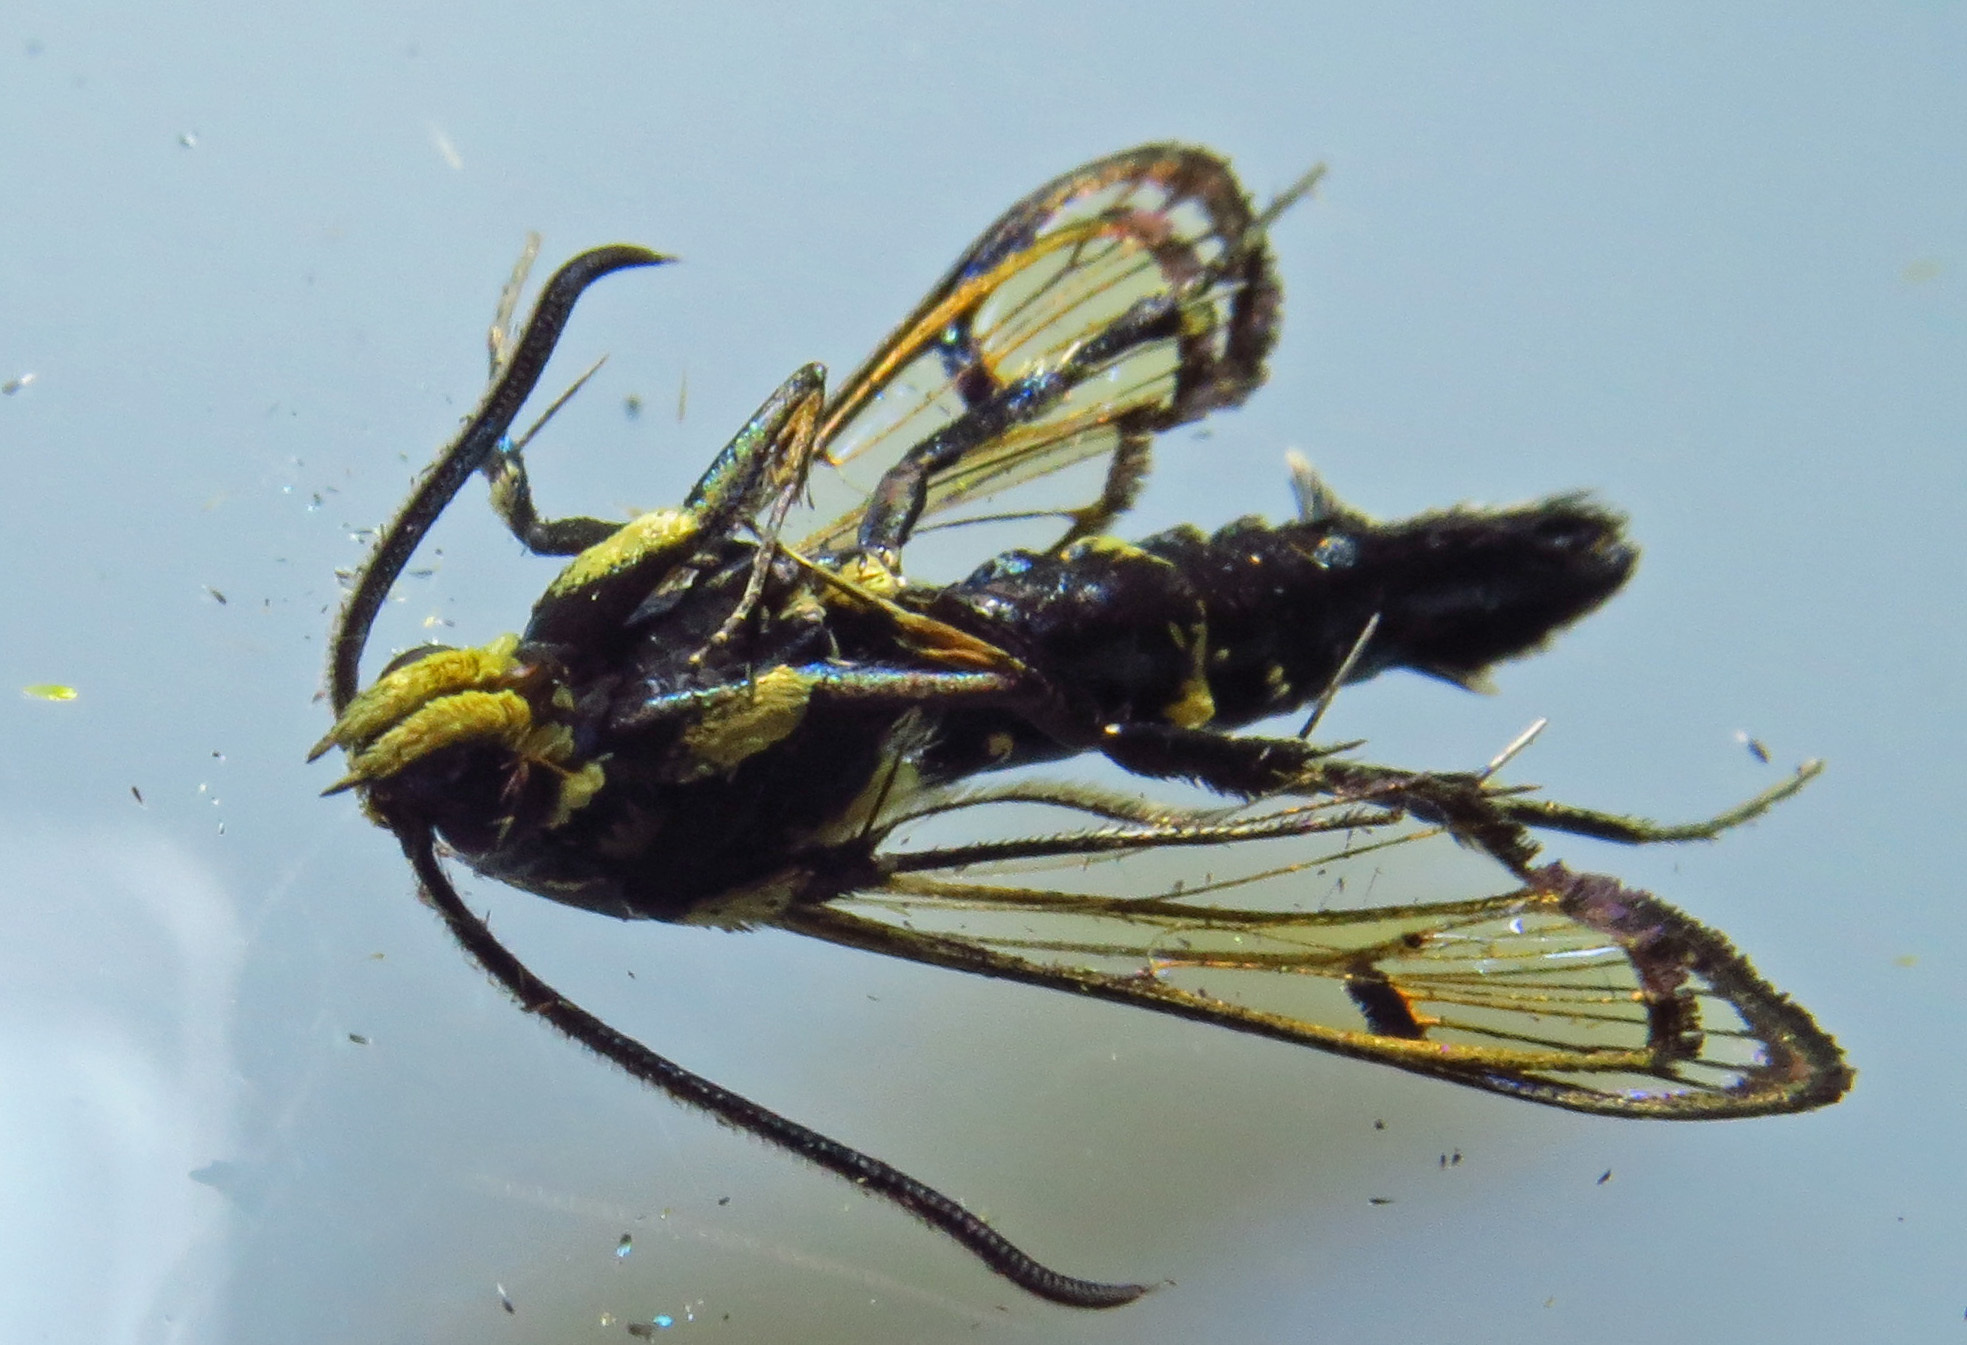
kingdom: Animalia
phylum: Arthropoda
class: Insecta
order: Lepidoptera
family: Sesiidae
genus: Synanthedon
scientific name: Synanthedon exitiosa
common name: Peachtree borer moth
